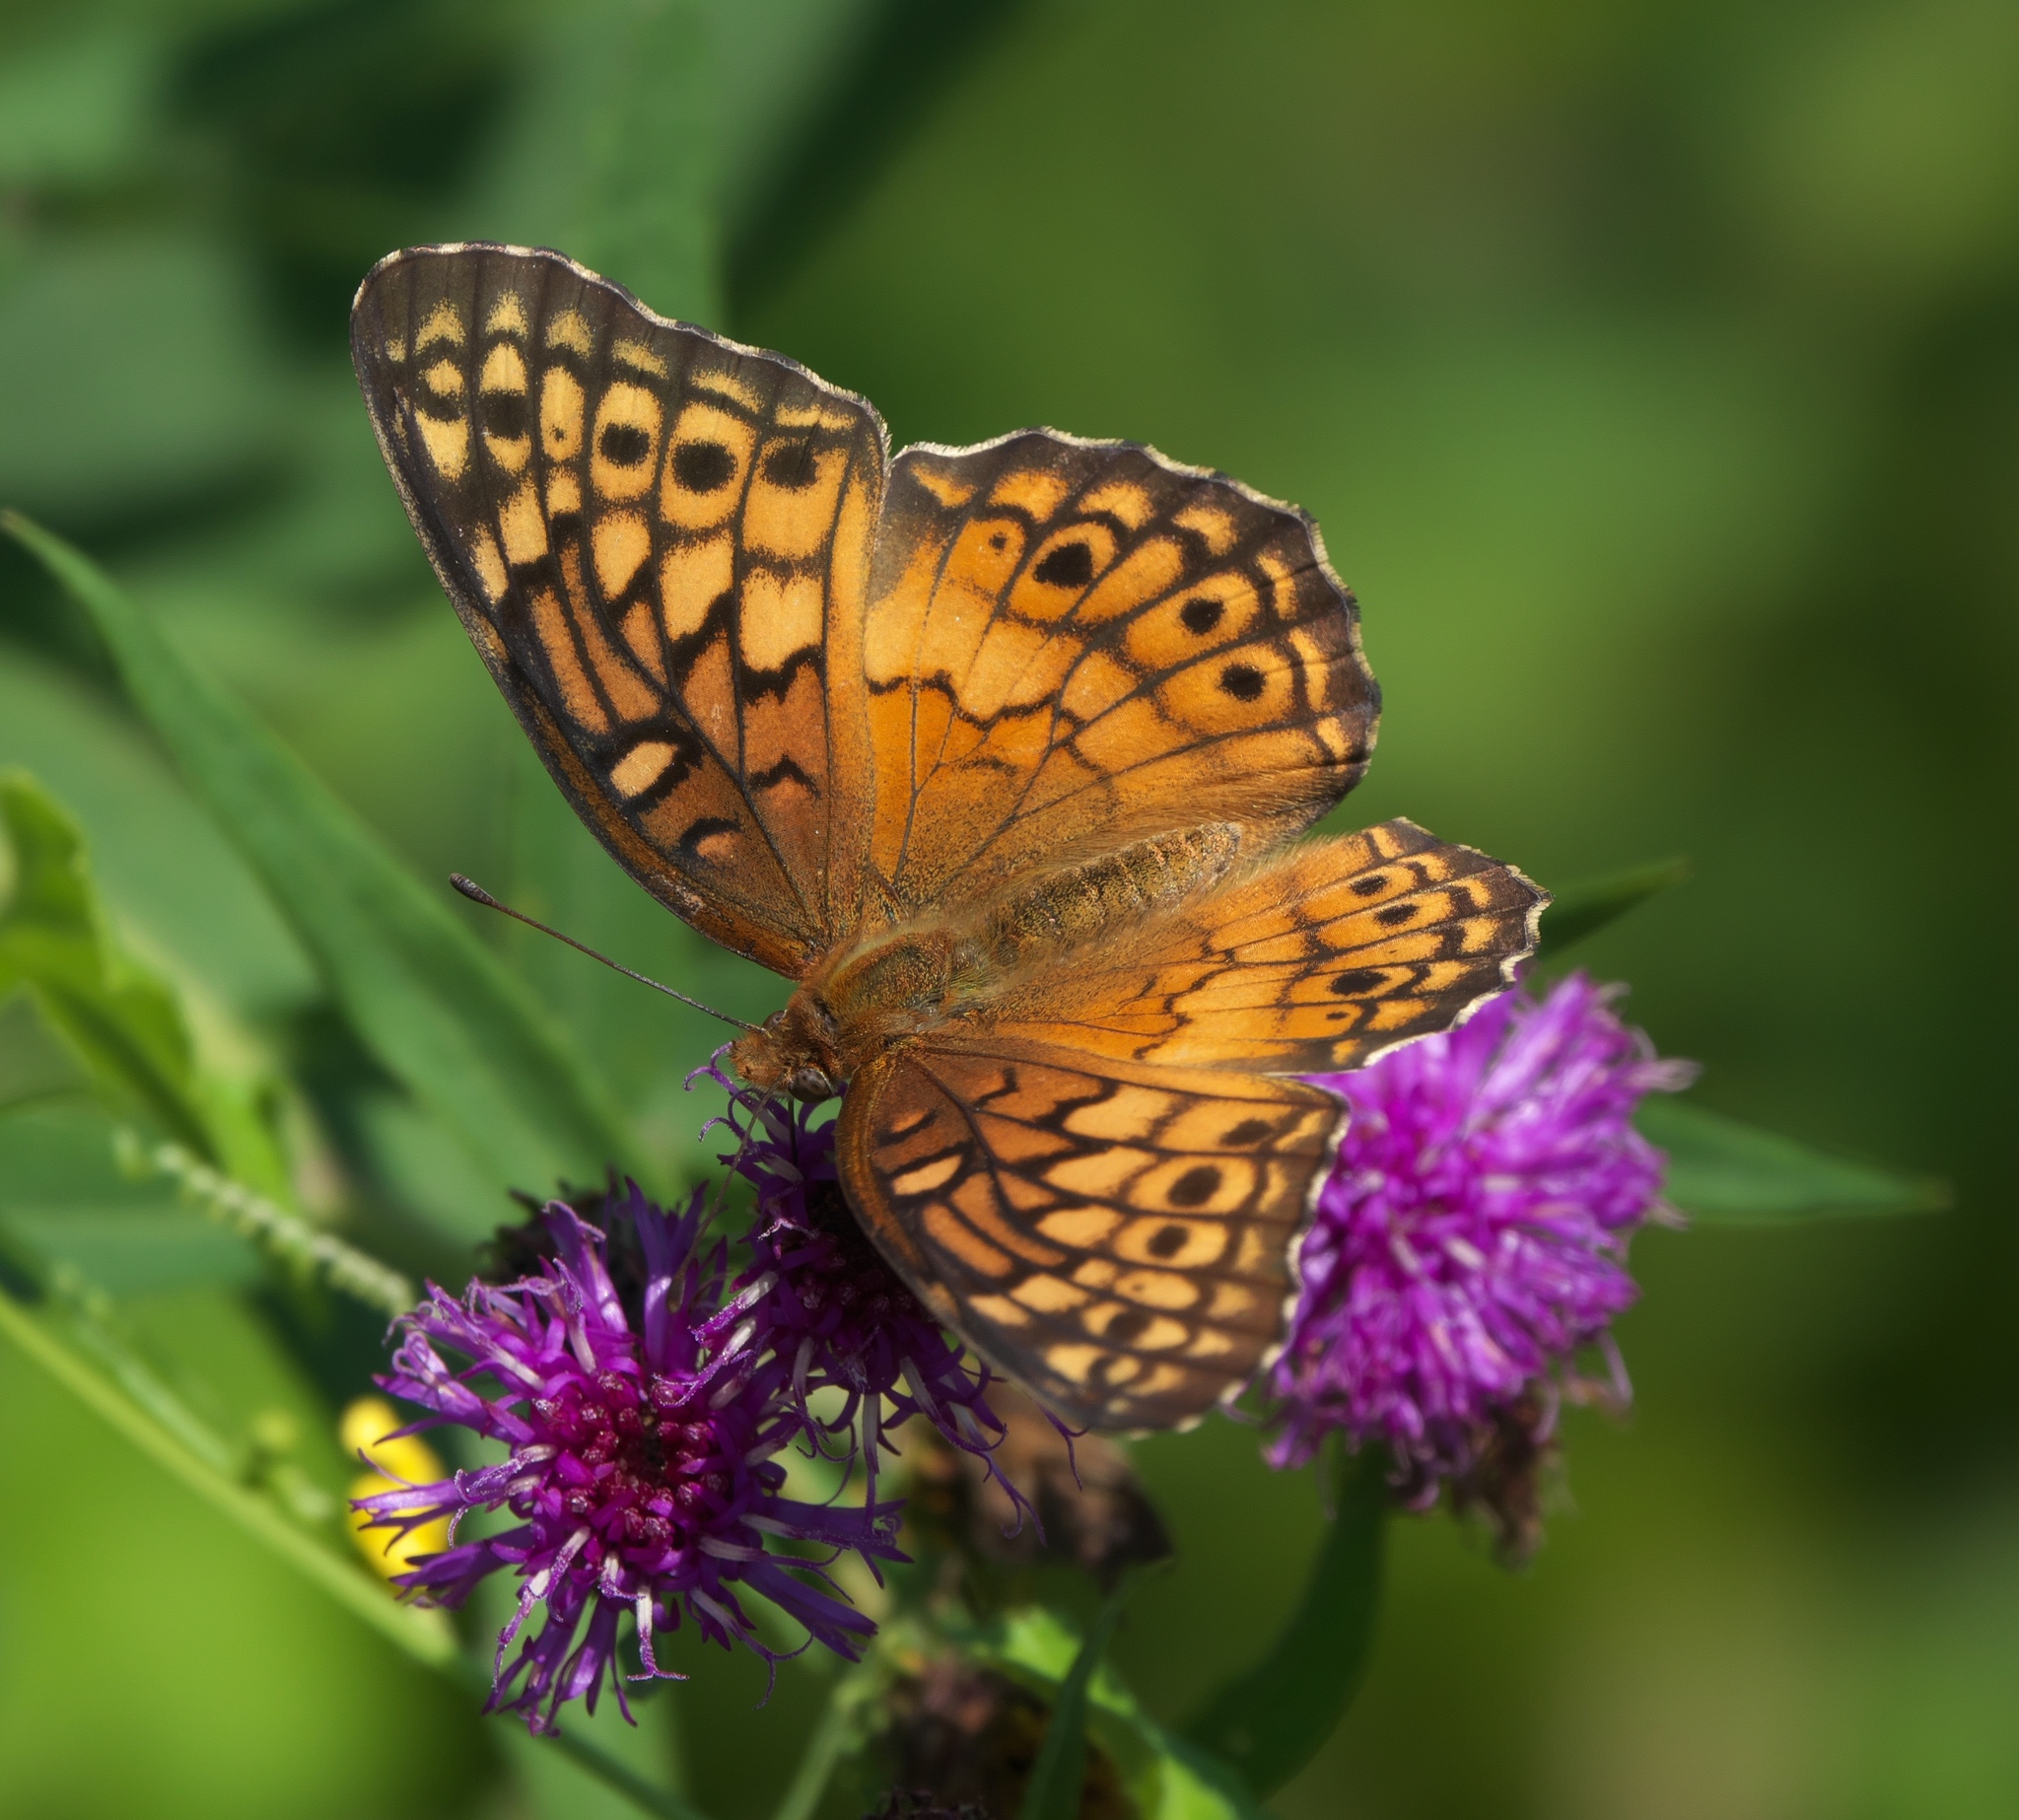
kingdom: Animalia
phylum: Arthropoda
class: Insecta
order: Lepidoptera
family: Nymphalidae
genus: Euptoieta
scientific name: Euptoieta claudia
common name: Variegated fritillary
